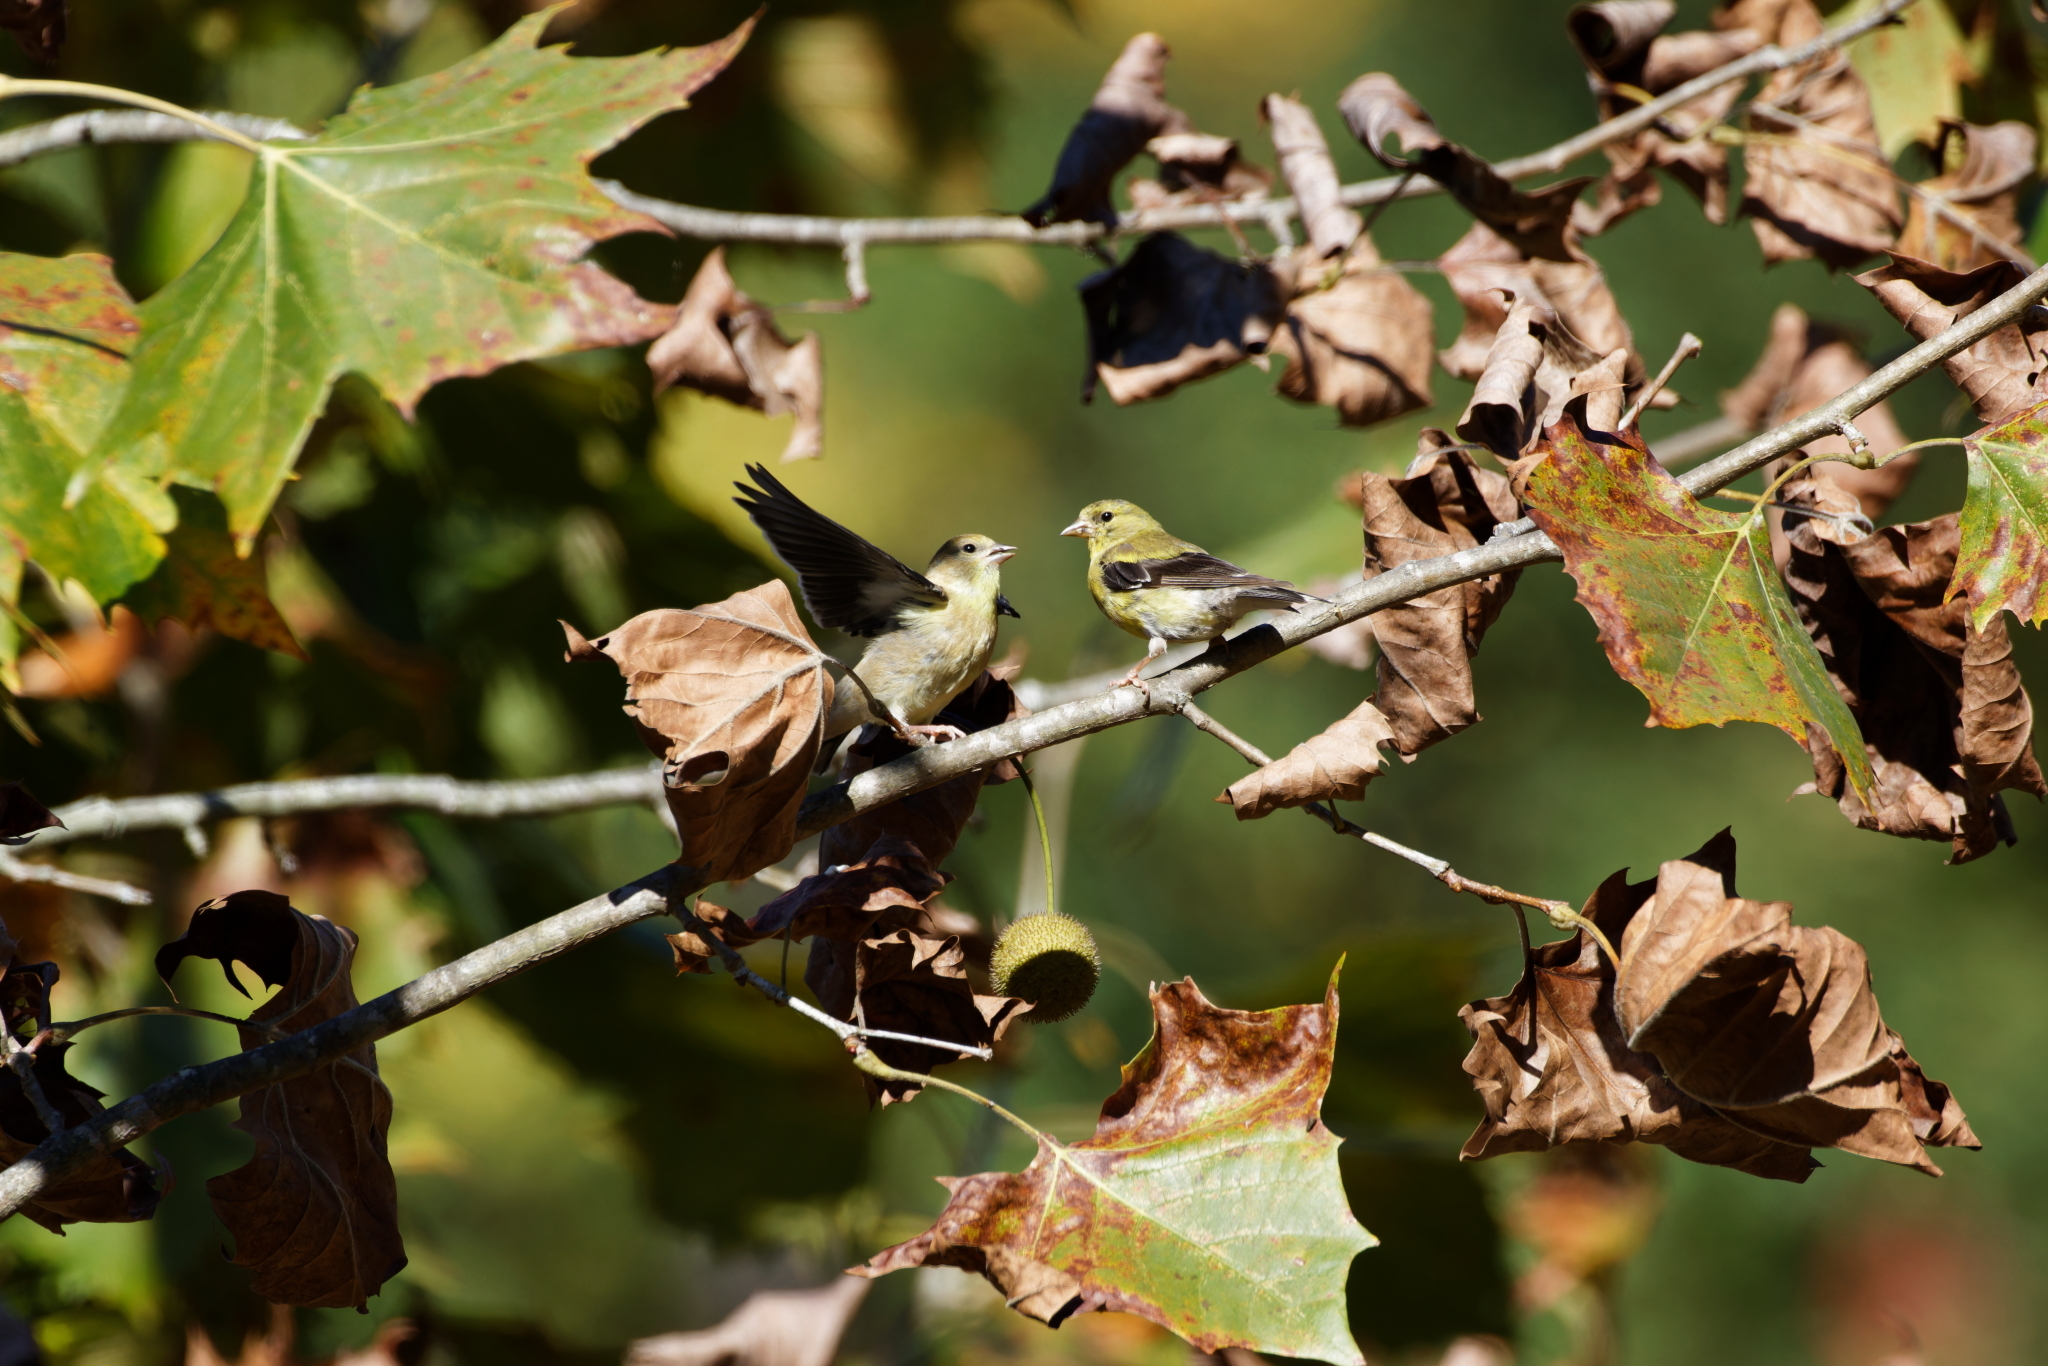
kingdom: Animalia
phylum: Chordata
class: Aves
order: Passeriformes
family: Fringillidae
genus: Spinus
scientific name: Spinus tristis
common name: American goldfinch
